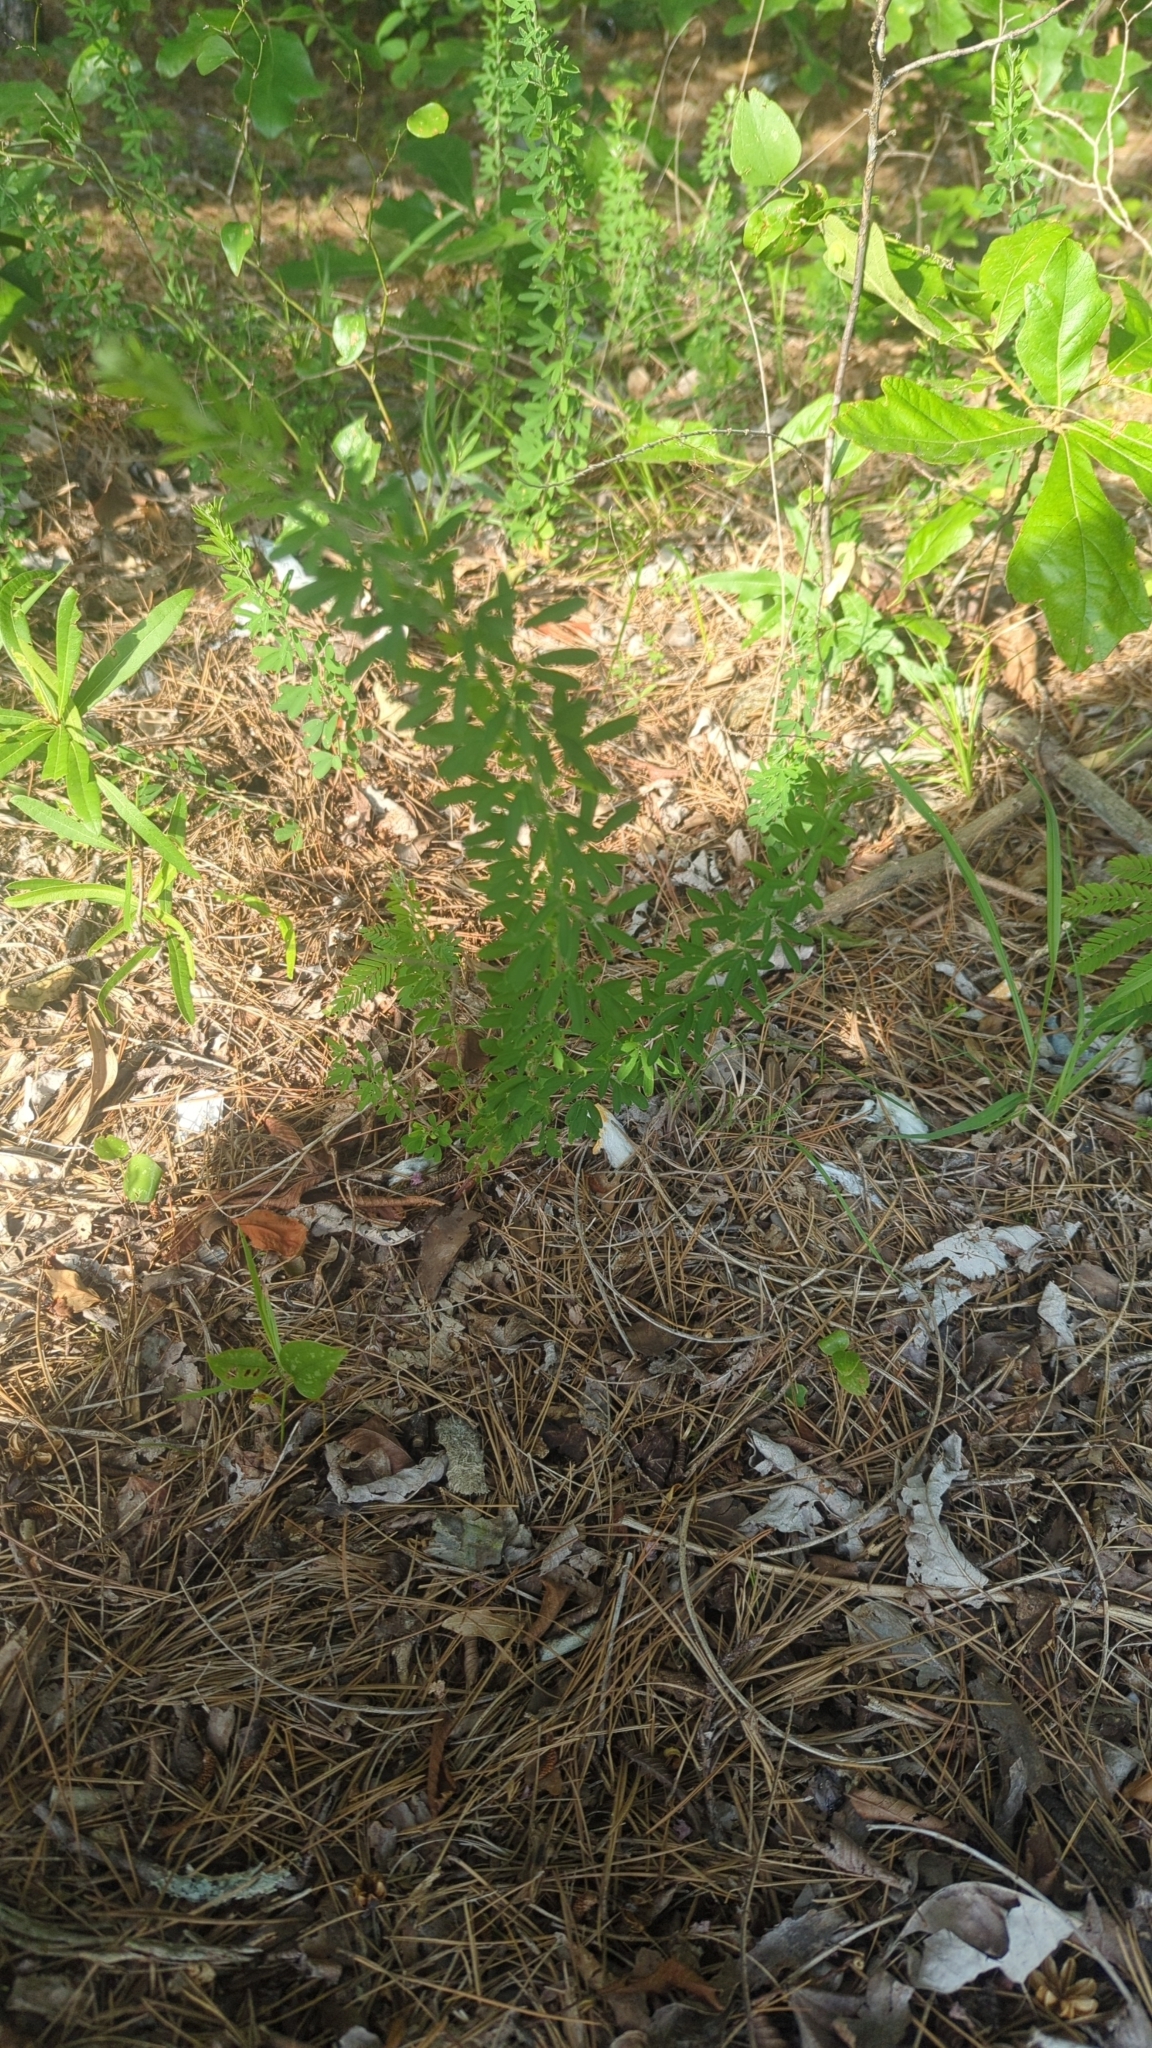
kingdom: Plantae
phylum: Tracheophyta
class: Magnoliopsida
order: Fabales
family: Fabaceae
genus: Lespedeza
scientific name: Lespedeza cuneata
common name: Chinese bush-clover
